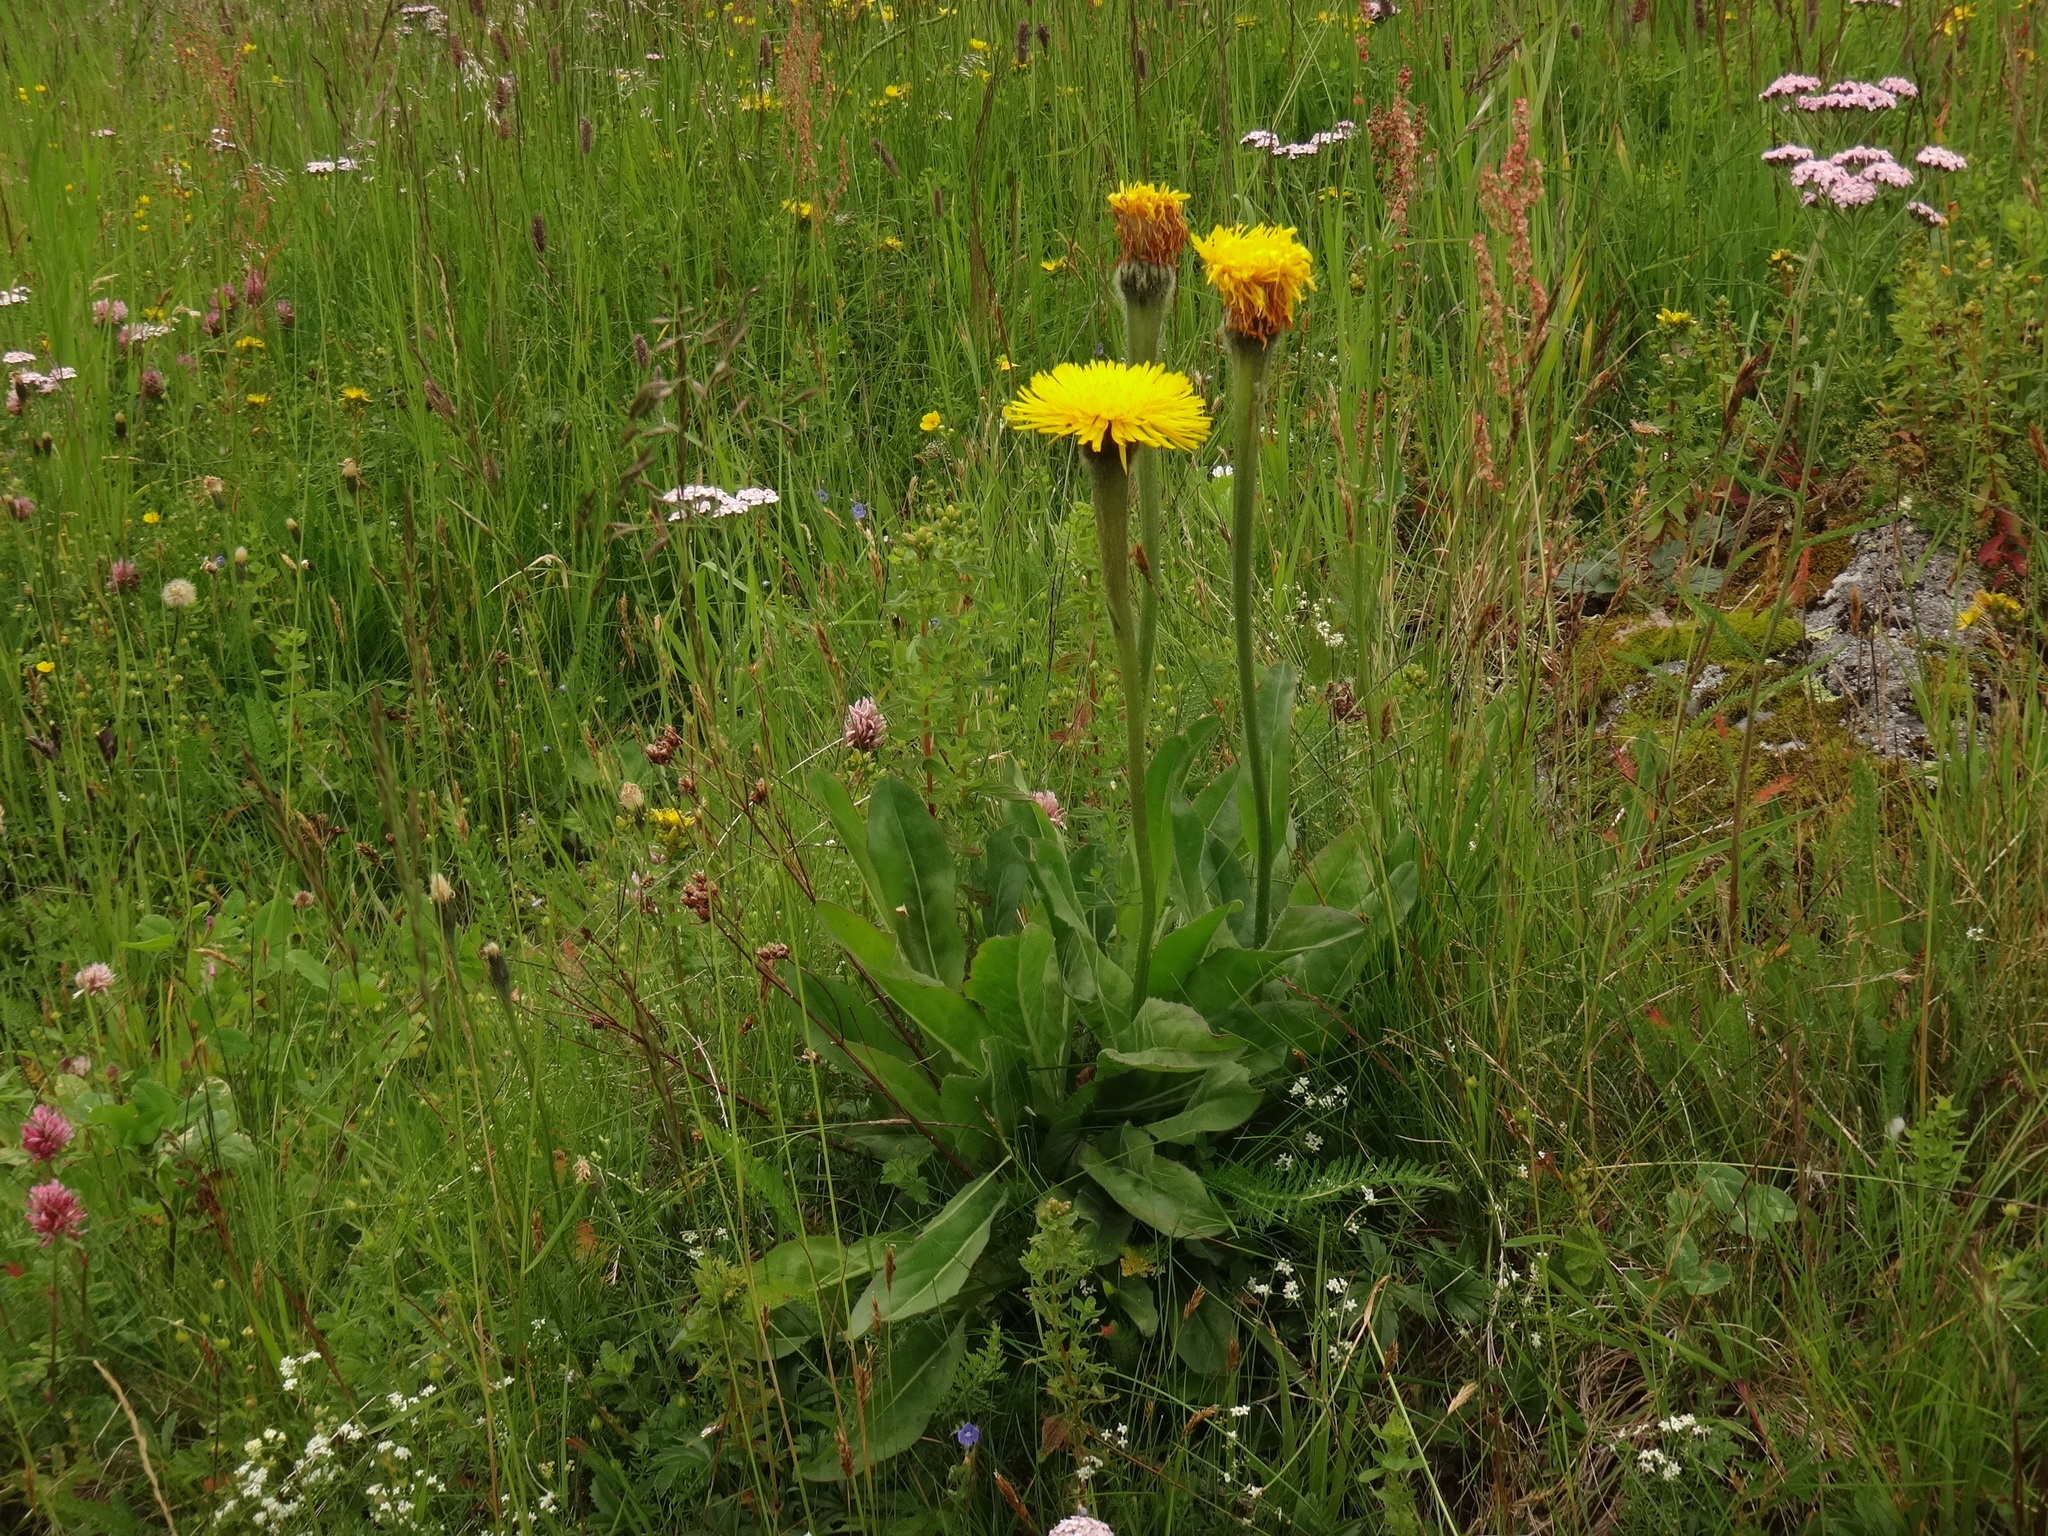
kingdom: Plantae
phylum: Tracheophyta
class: Magnoliopsida
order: Asterales
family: Asteraceae
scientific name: Asteraceae
